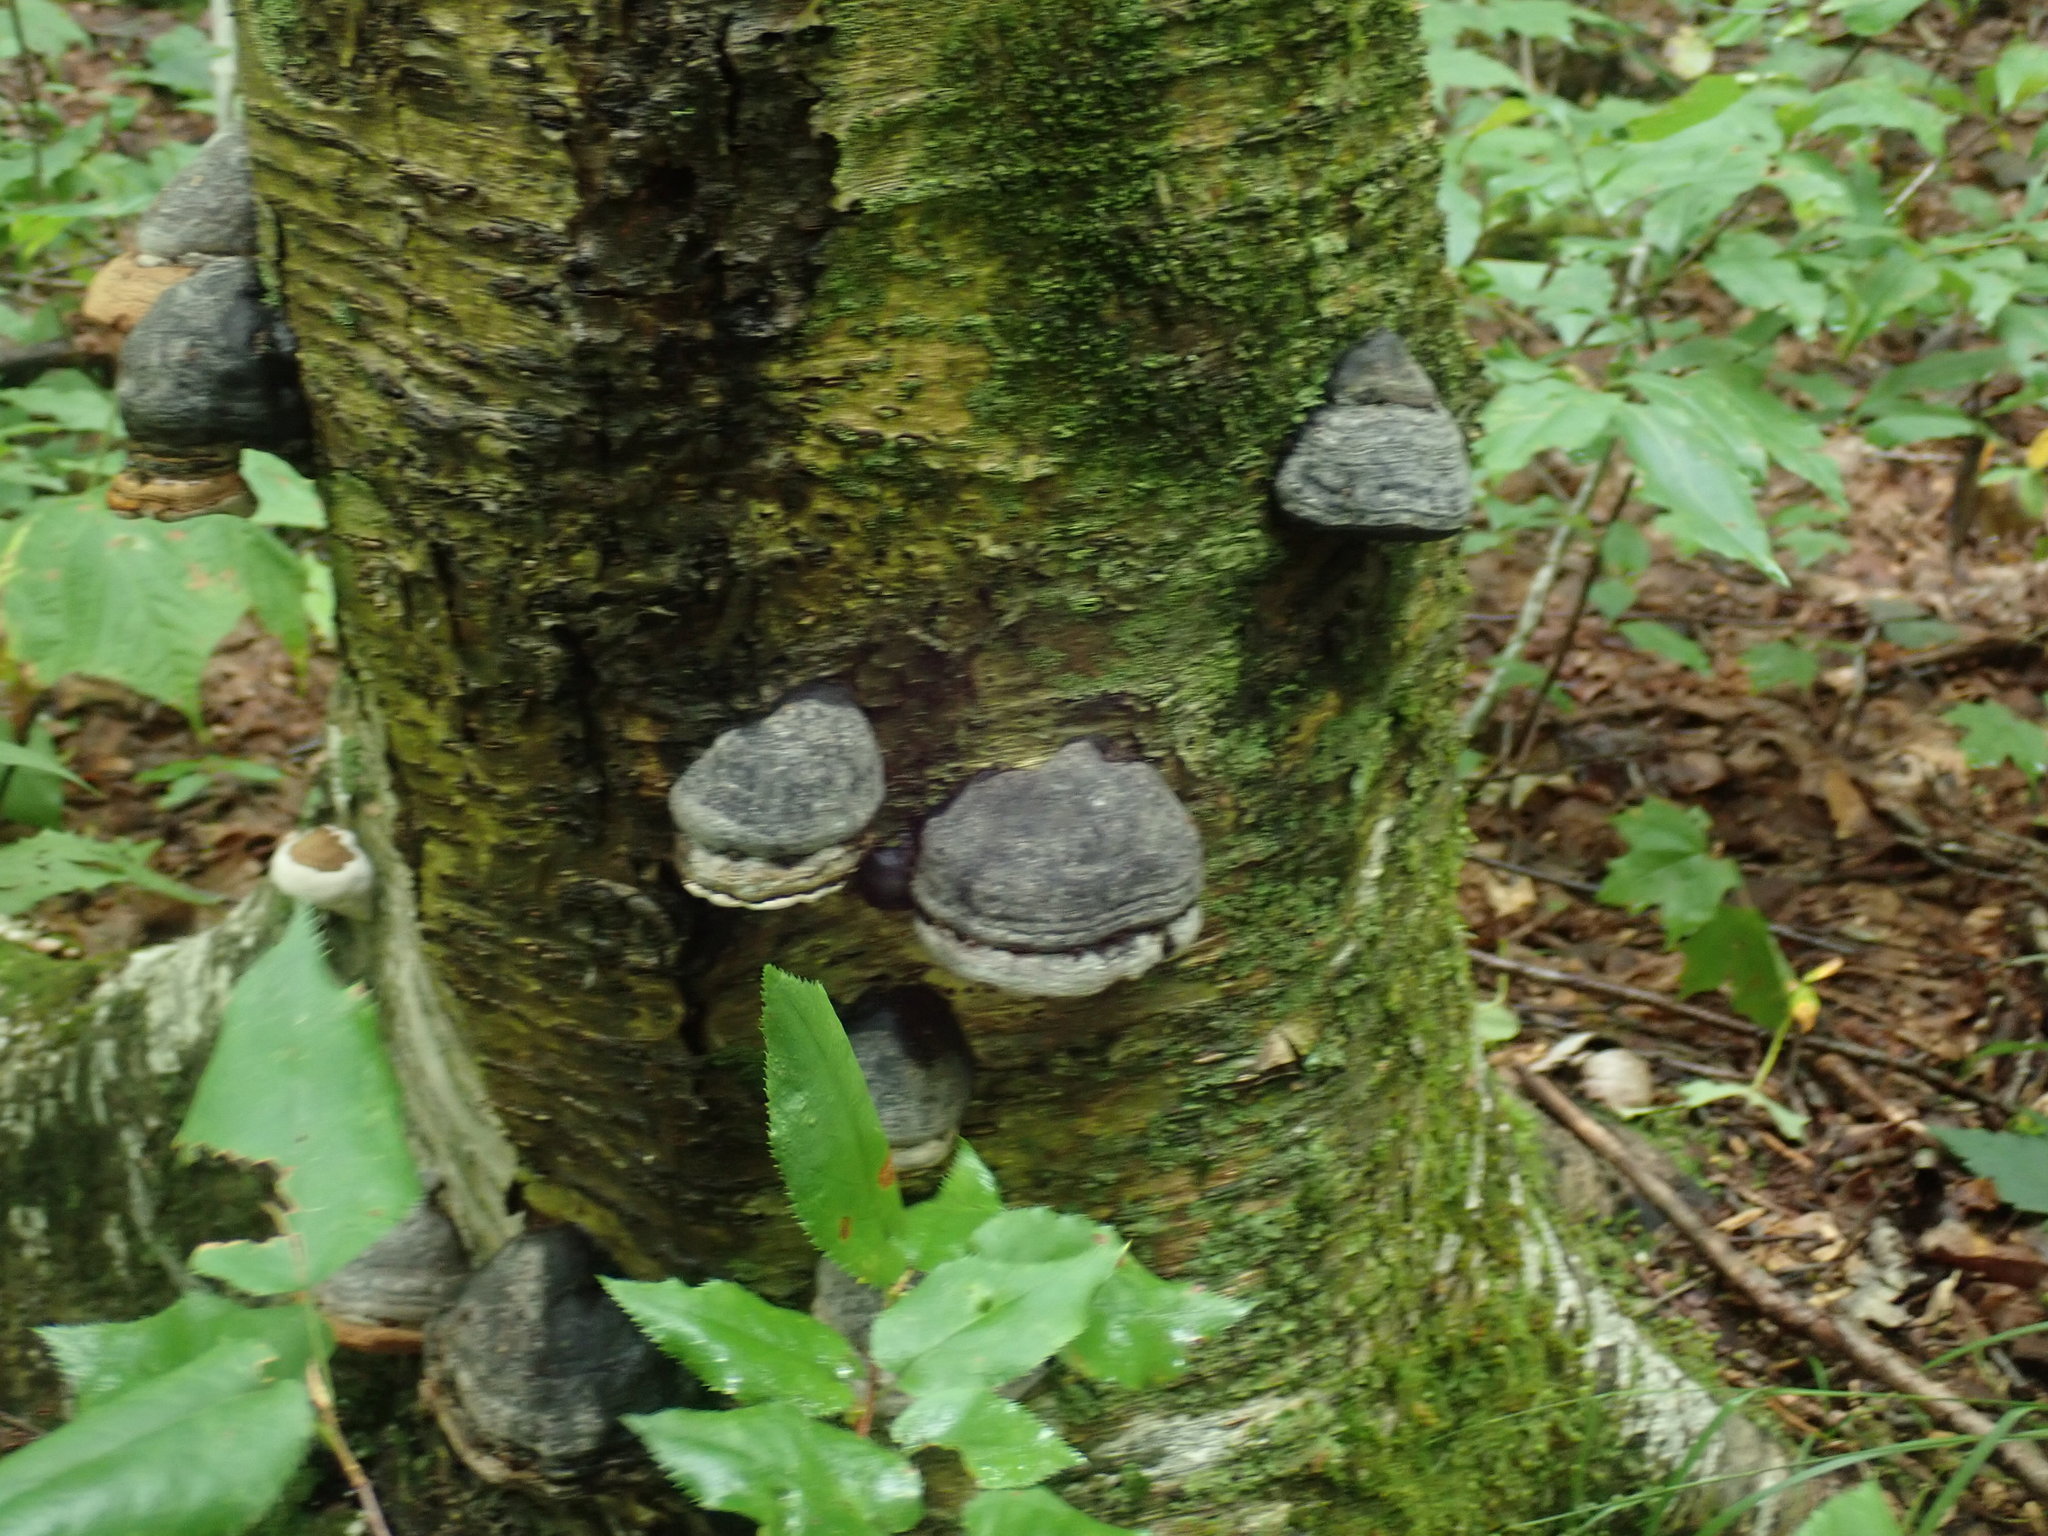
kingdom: Fungi
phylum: Basidiomycota
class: Agaricomycetes
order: Polyporales
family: Polyporaceae
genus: Fomes
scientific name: Fomes fomentarius
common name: Hoof fungus
